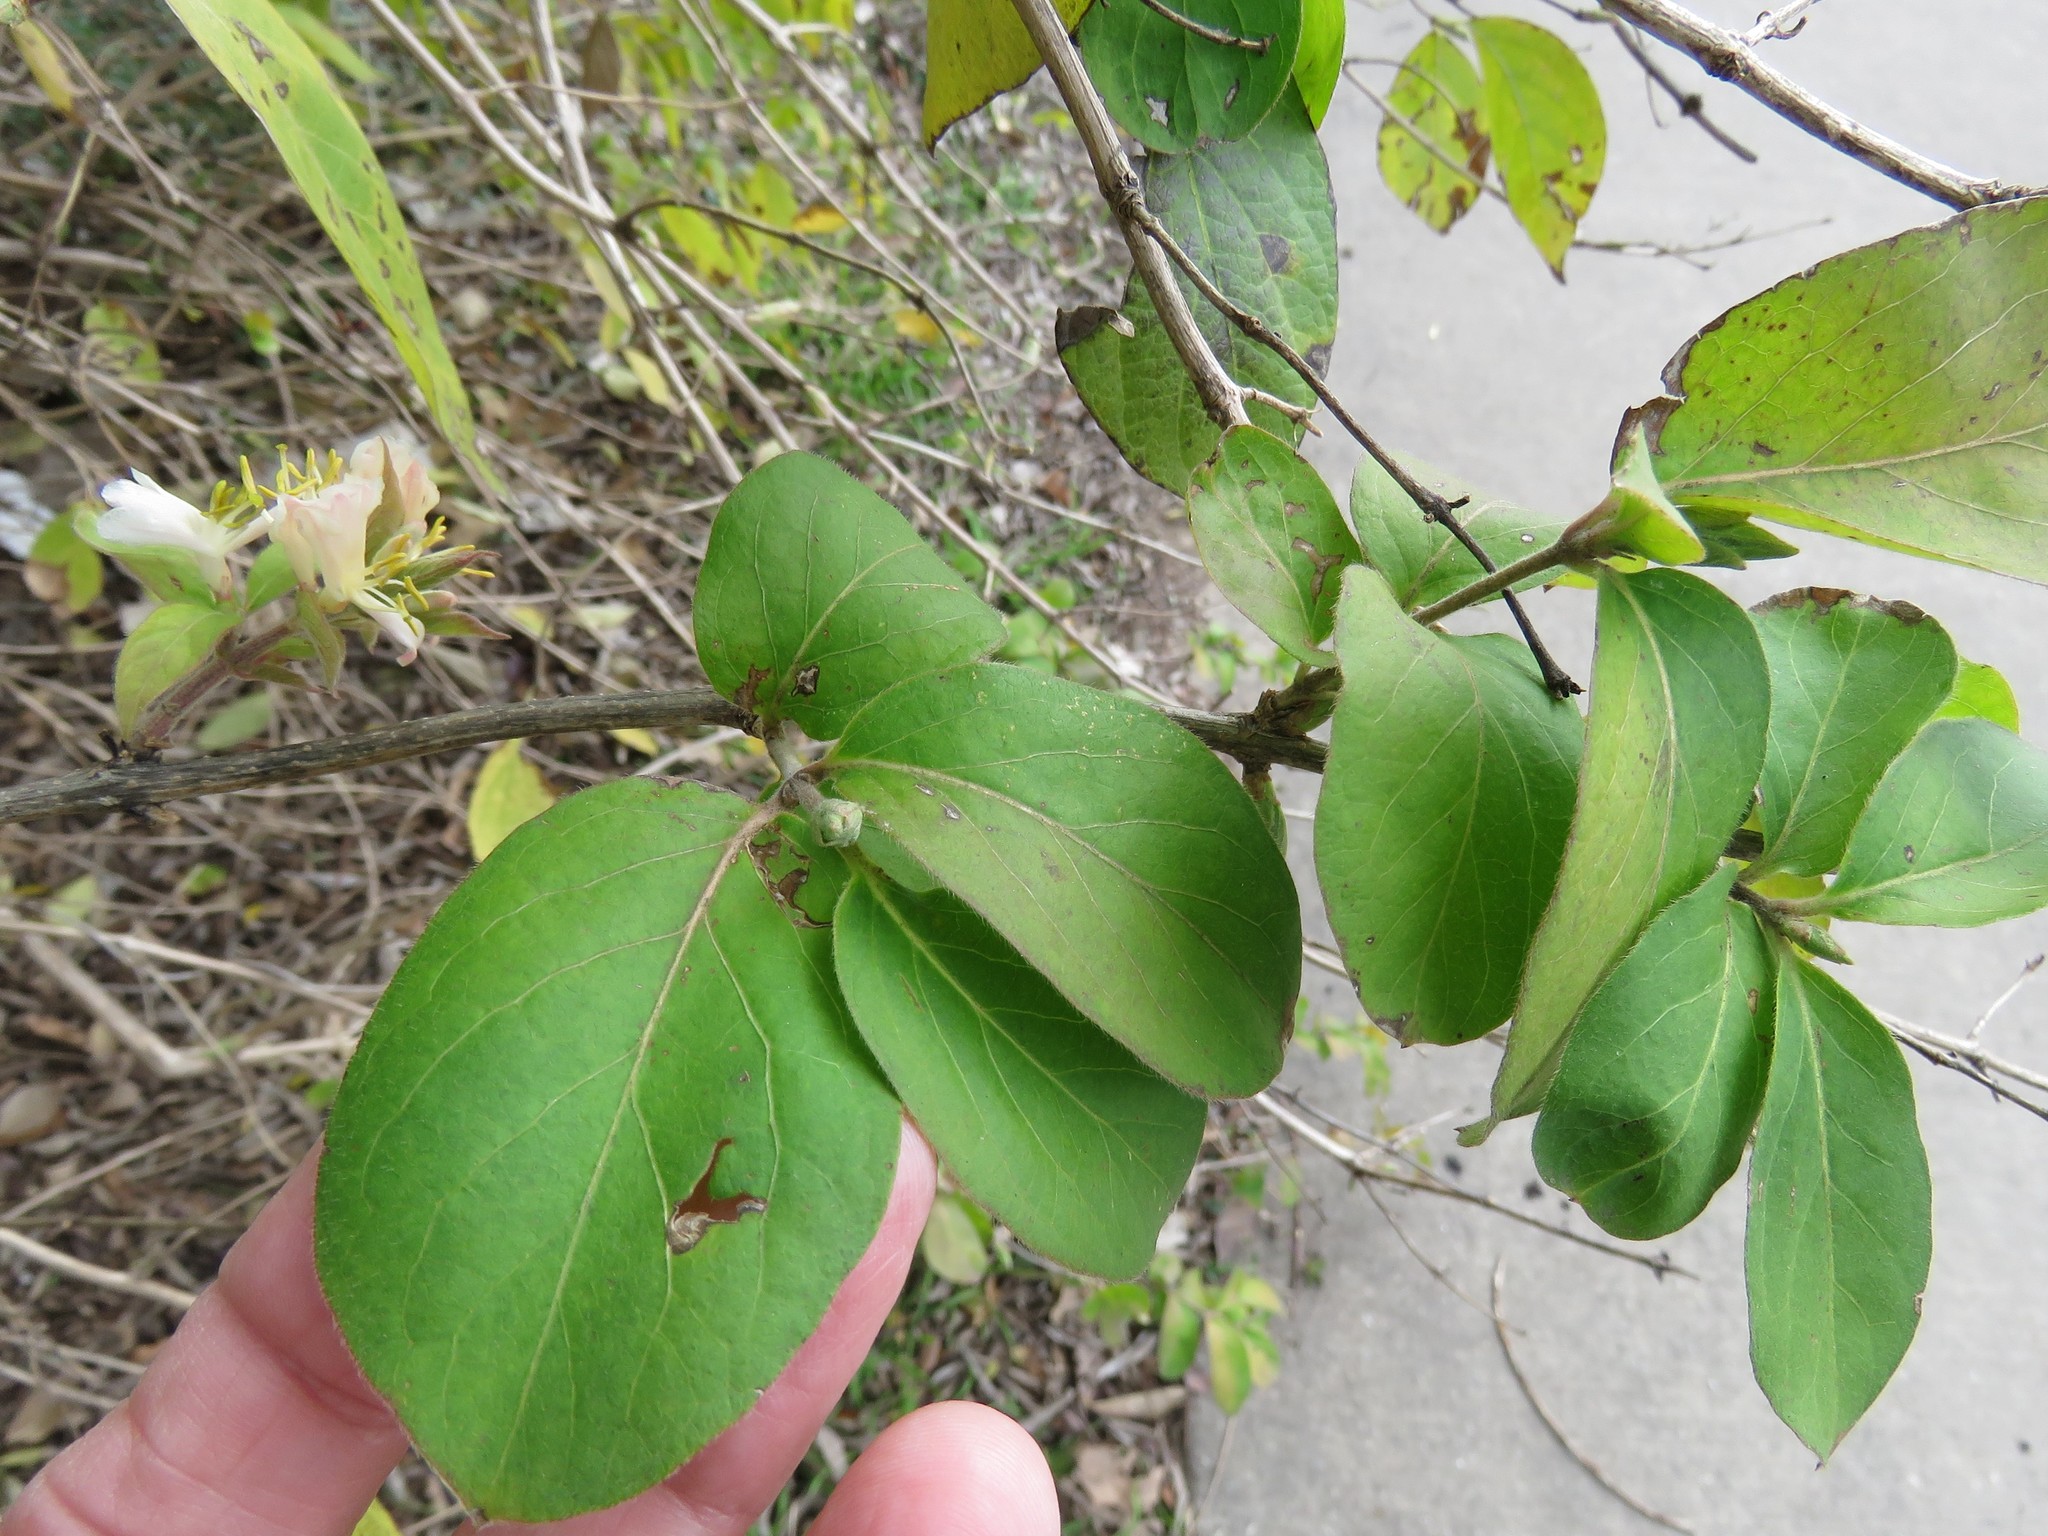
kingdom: Plantae
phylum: Tracheophyta
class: Magnoliopsida
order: Dipsacales
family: Caprifoliaceae
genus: Lonicera
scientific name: Lonicera fragrantissima
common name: Fragrant honeysuckle
